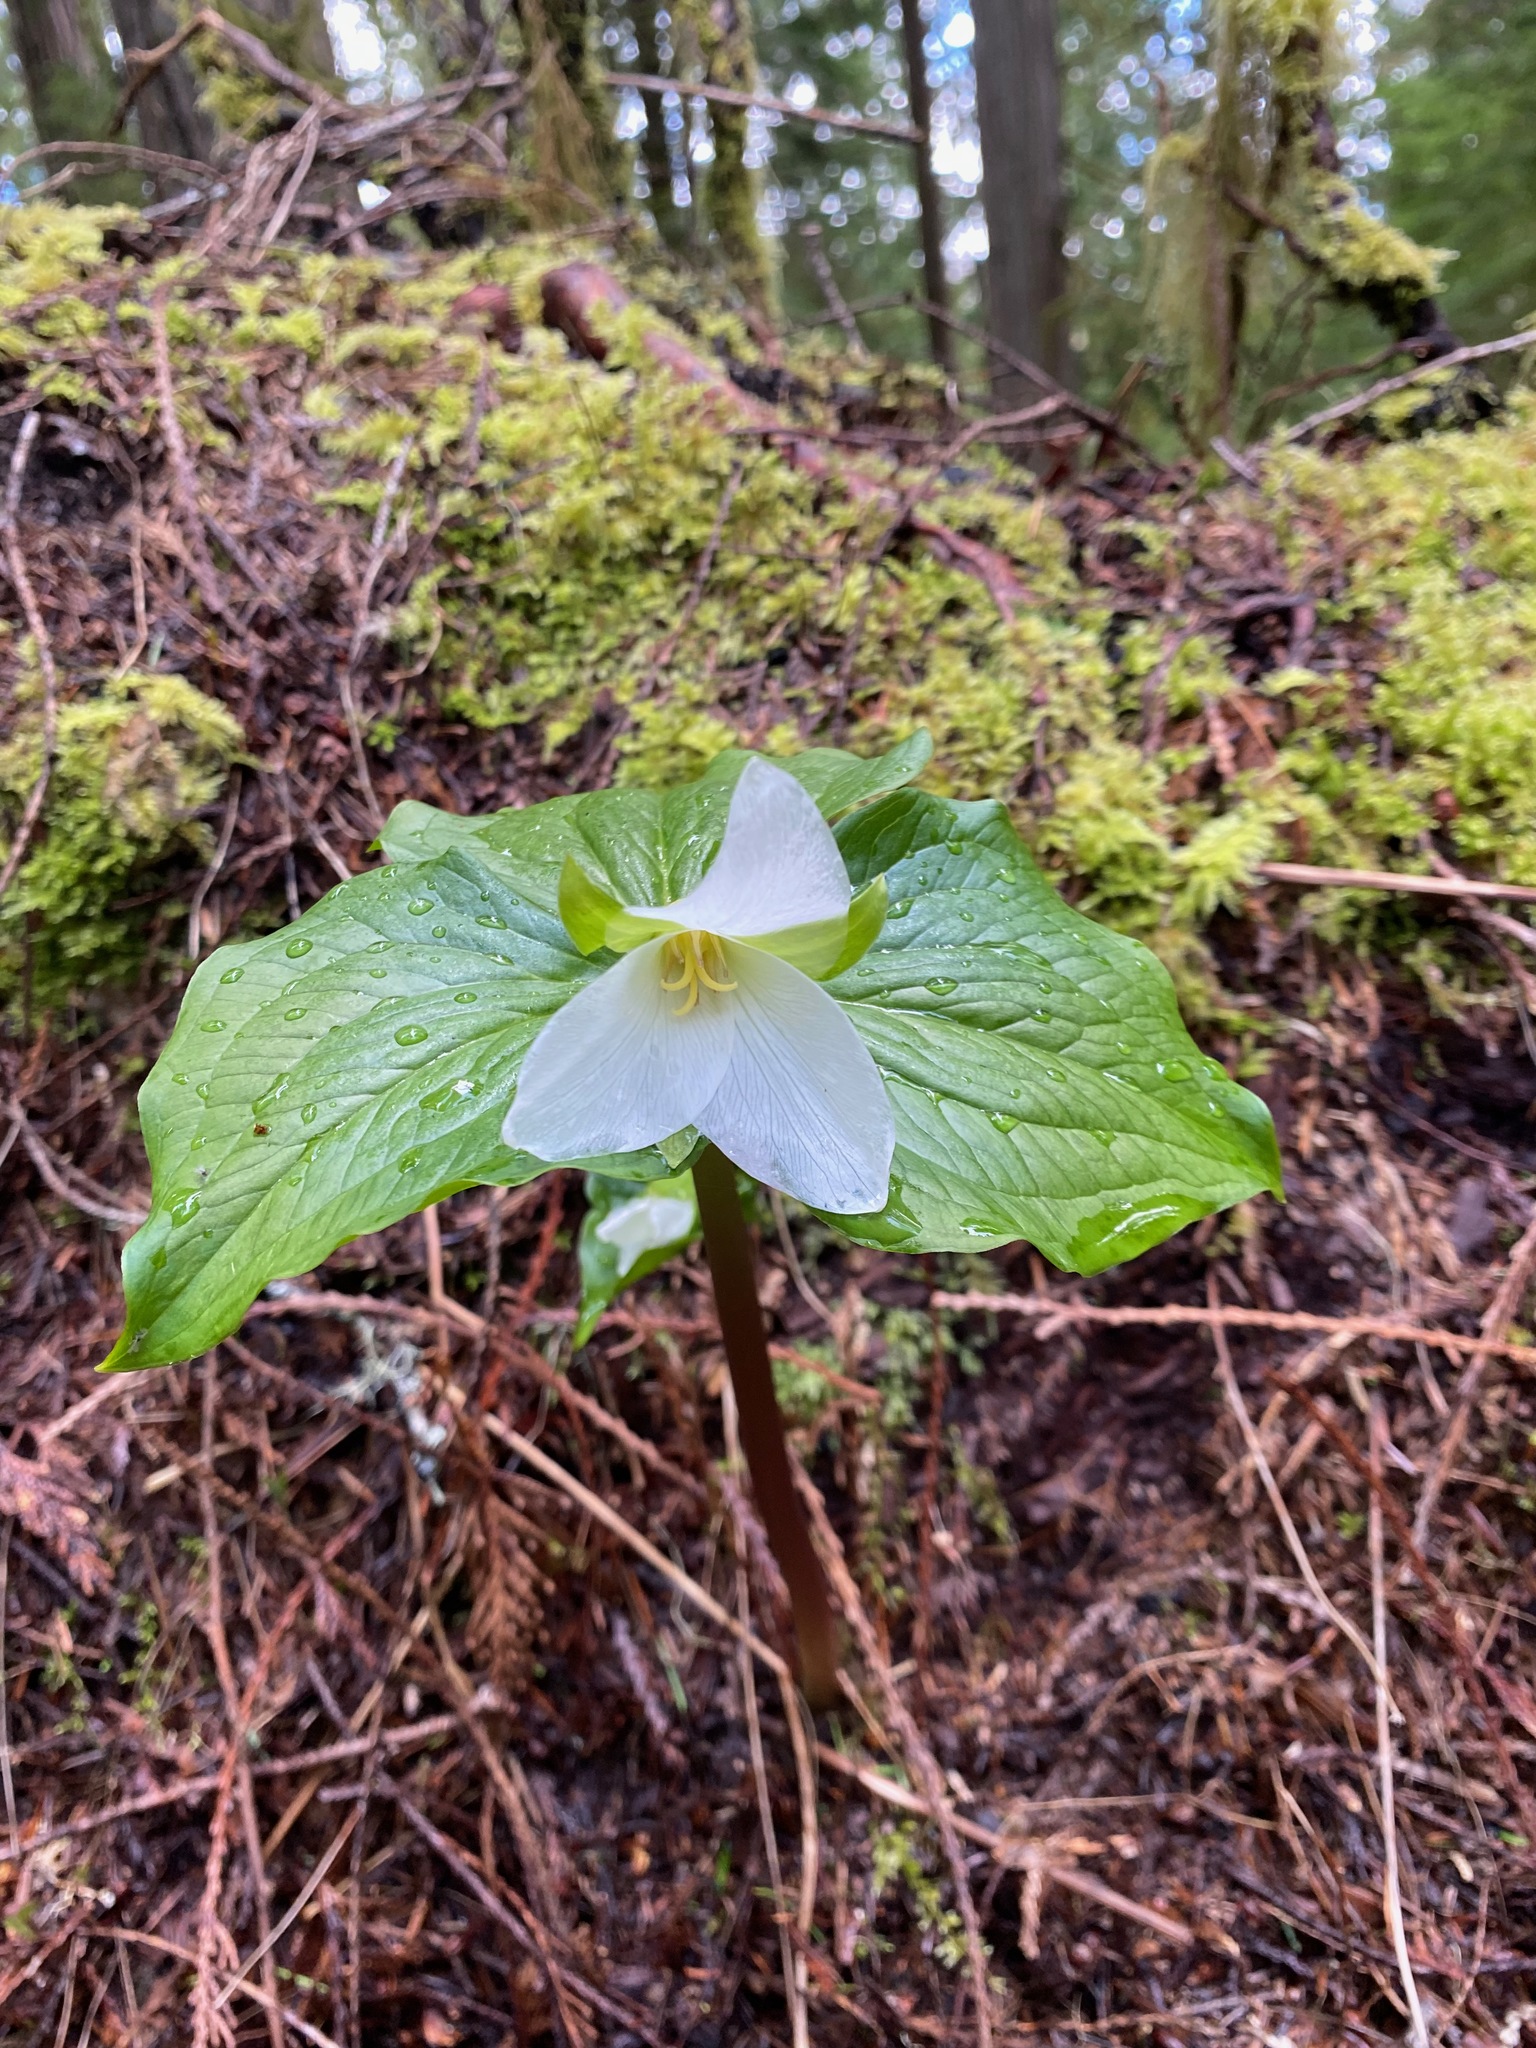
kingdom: Plantae
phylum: Tracheophyta
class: Liliopsida
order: Liliales
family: Melanthiaceae
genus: Trillium
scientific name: Trillium ovatum
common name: Pacific trillium
